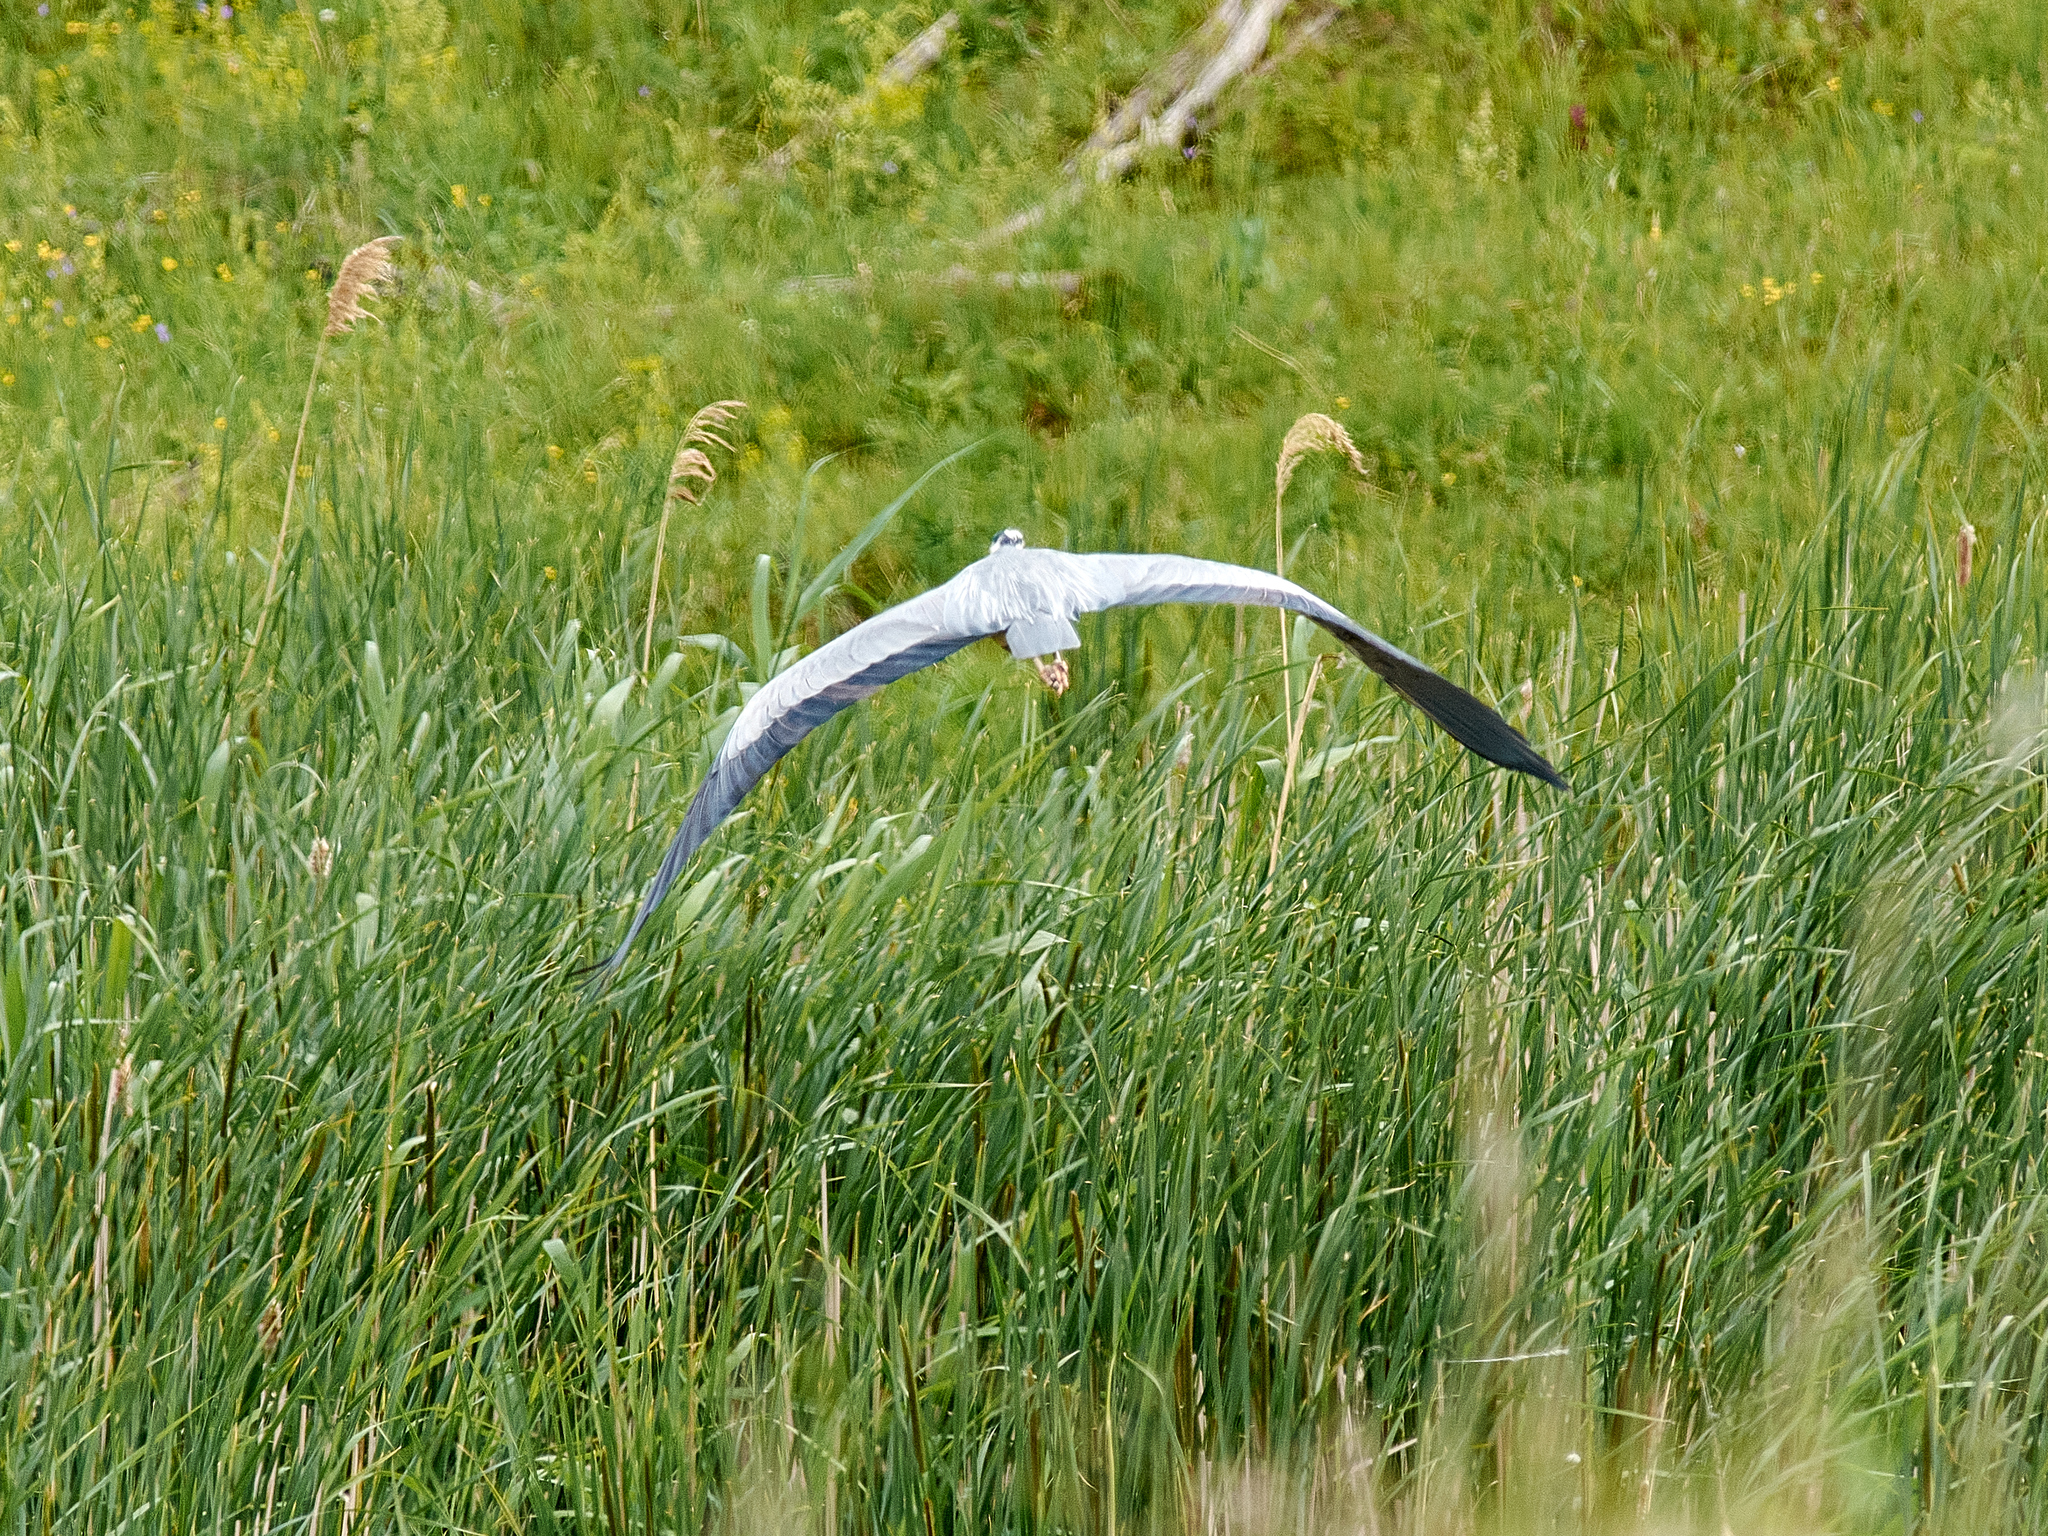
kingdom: Animalia
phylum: Chordata
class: Aves
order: Pelecaniformes
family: Ardeidae
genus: Ardea
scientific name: Ardea cinerea
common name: Grey heron
